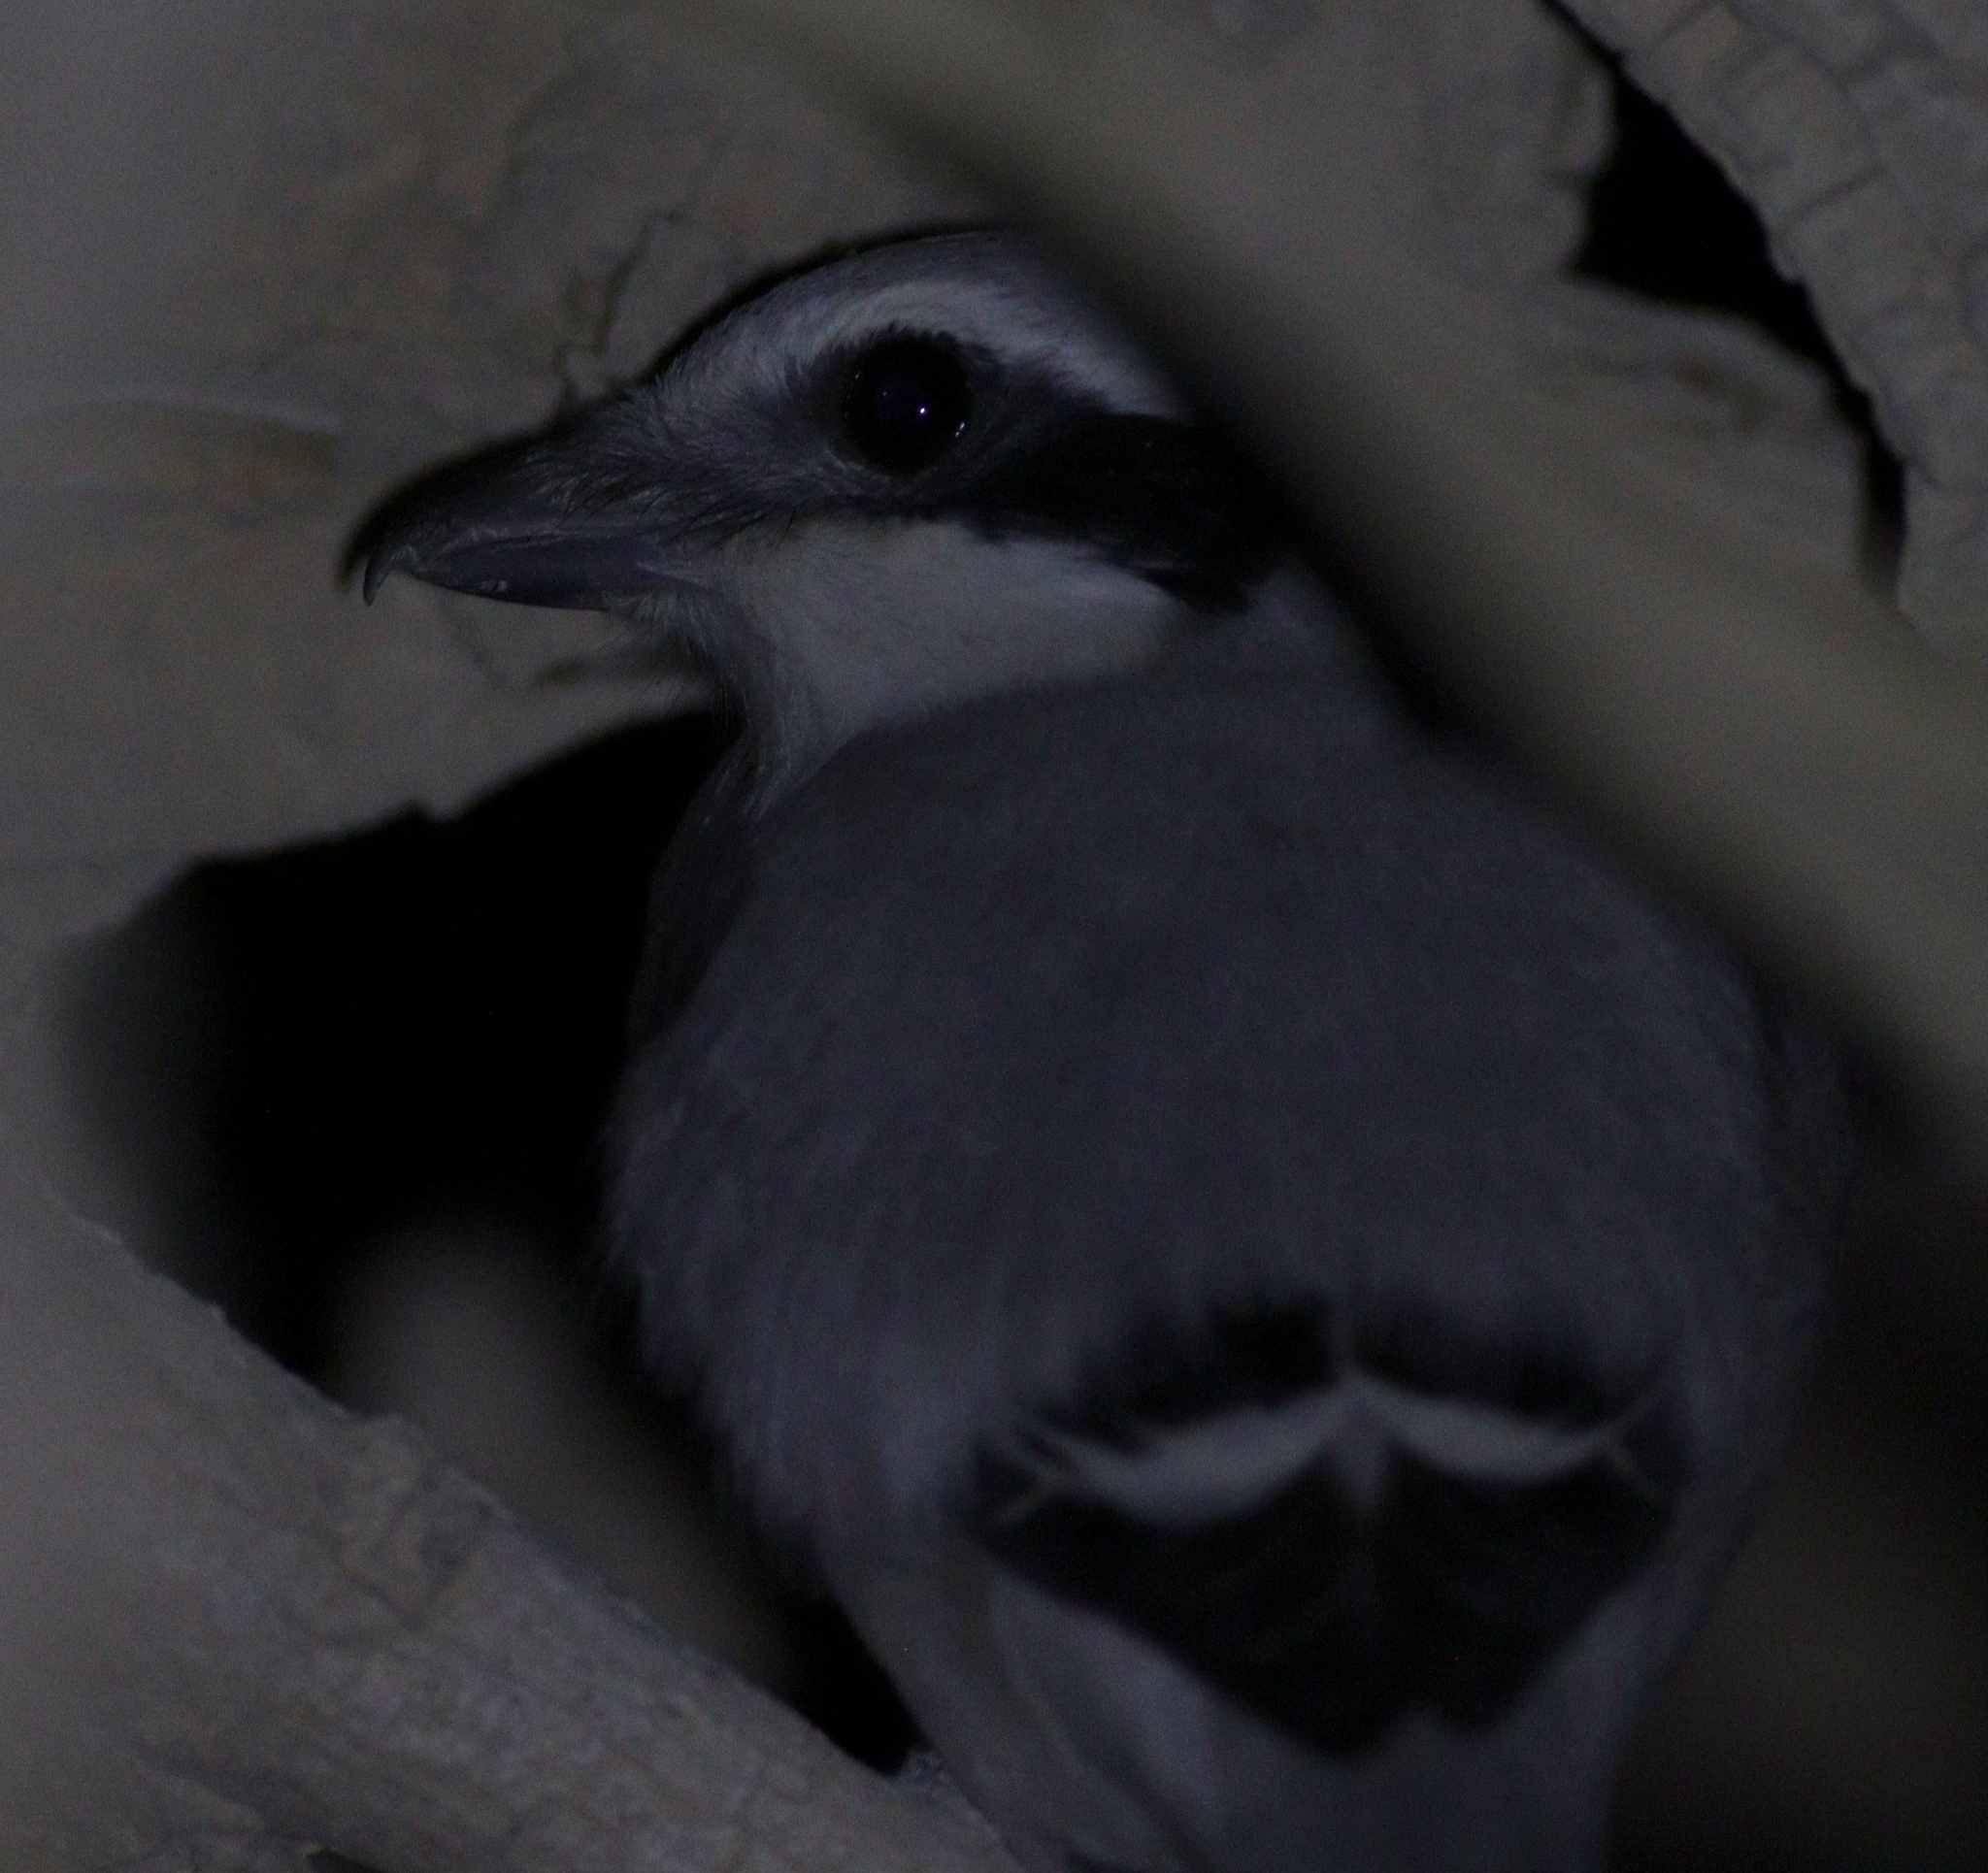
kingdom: Animalia
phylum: Chordata
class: Aves
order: Passeriformes
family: Laniidae
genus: Lanius
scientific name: Lanius excubitor
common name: Great grey shrike
